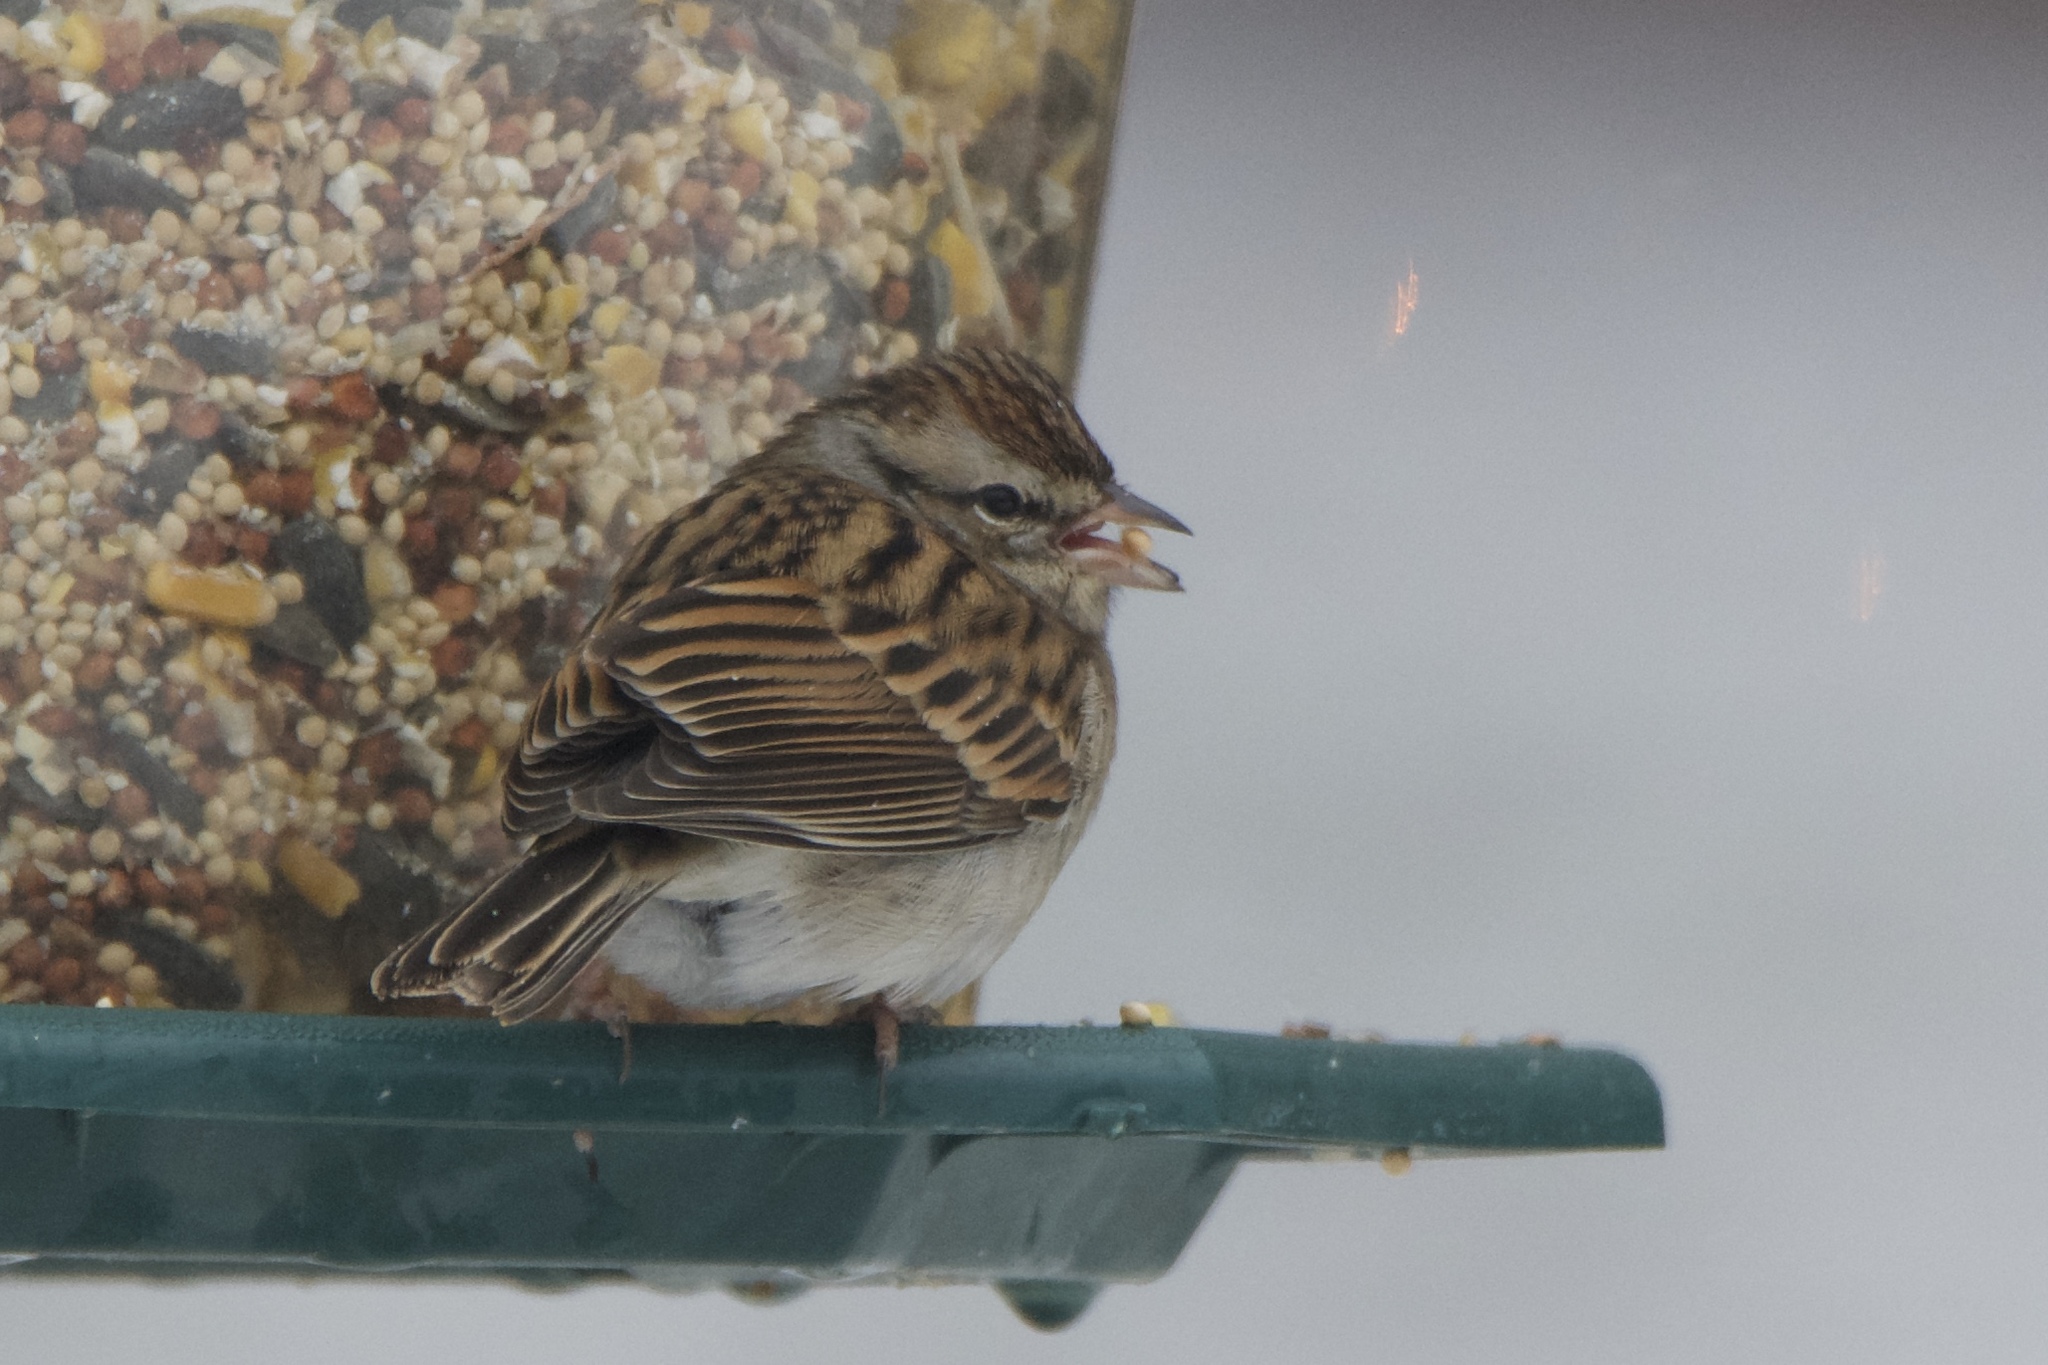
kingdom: Animalia
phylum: Chordata
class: Aves
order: Passeriformes
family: Passerellidae
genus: Spizella
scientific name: Spizella passerina
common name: Chipping sparrow
